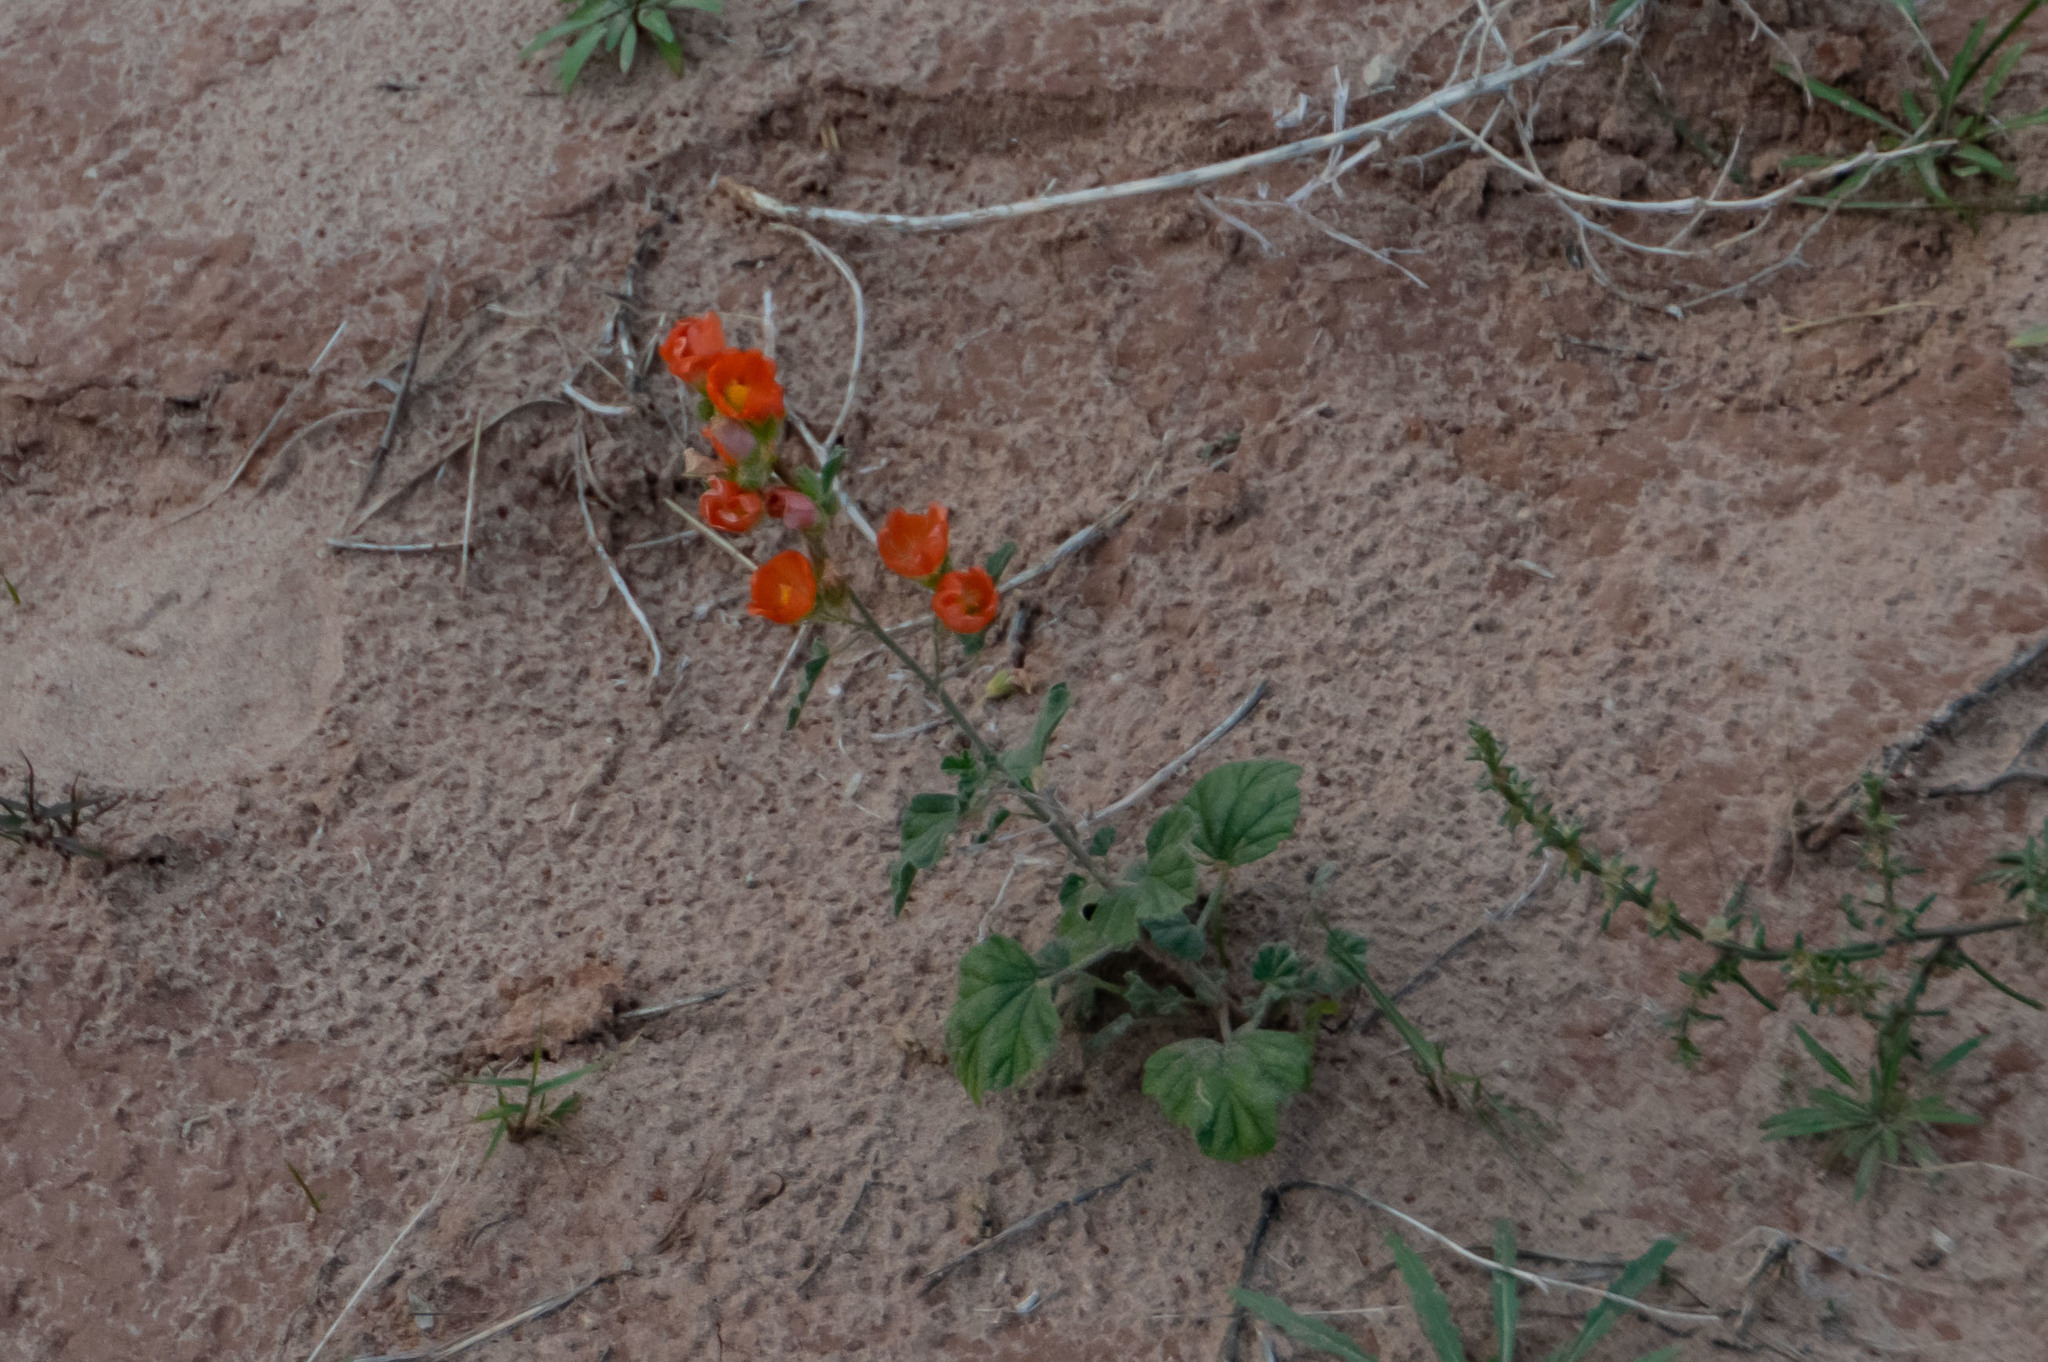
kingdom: Plantae
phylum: Tracheophyta
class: Magnoliopsida
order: Malvales
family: Malvaceae
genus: Sphaeralcea
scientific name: Sphaeralcea parvifolia
